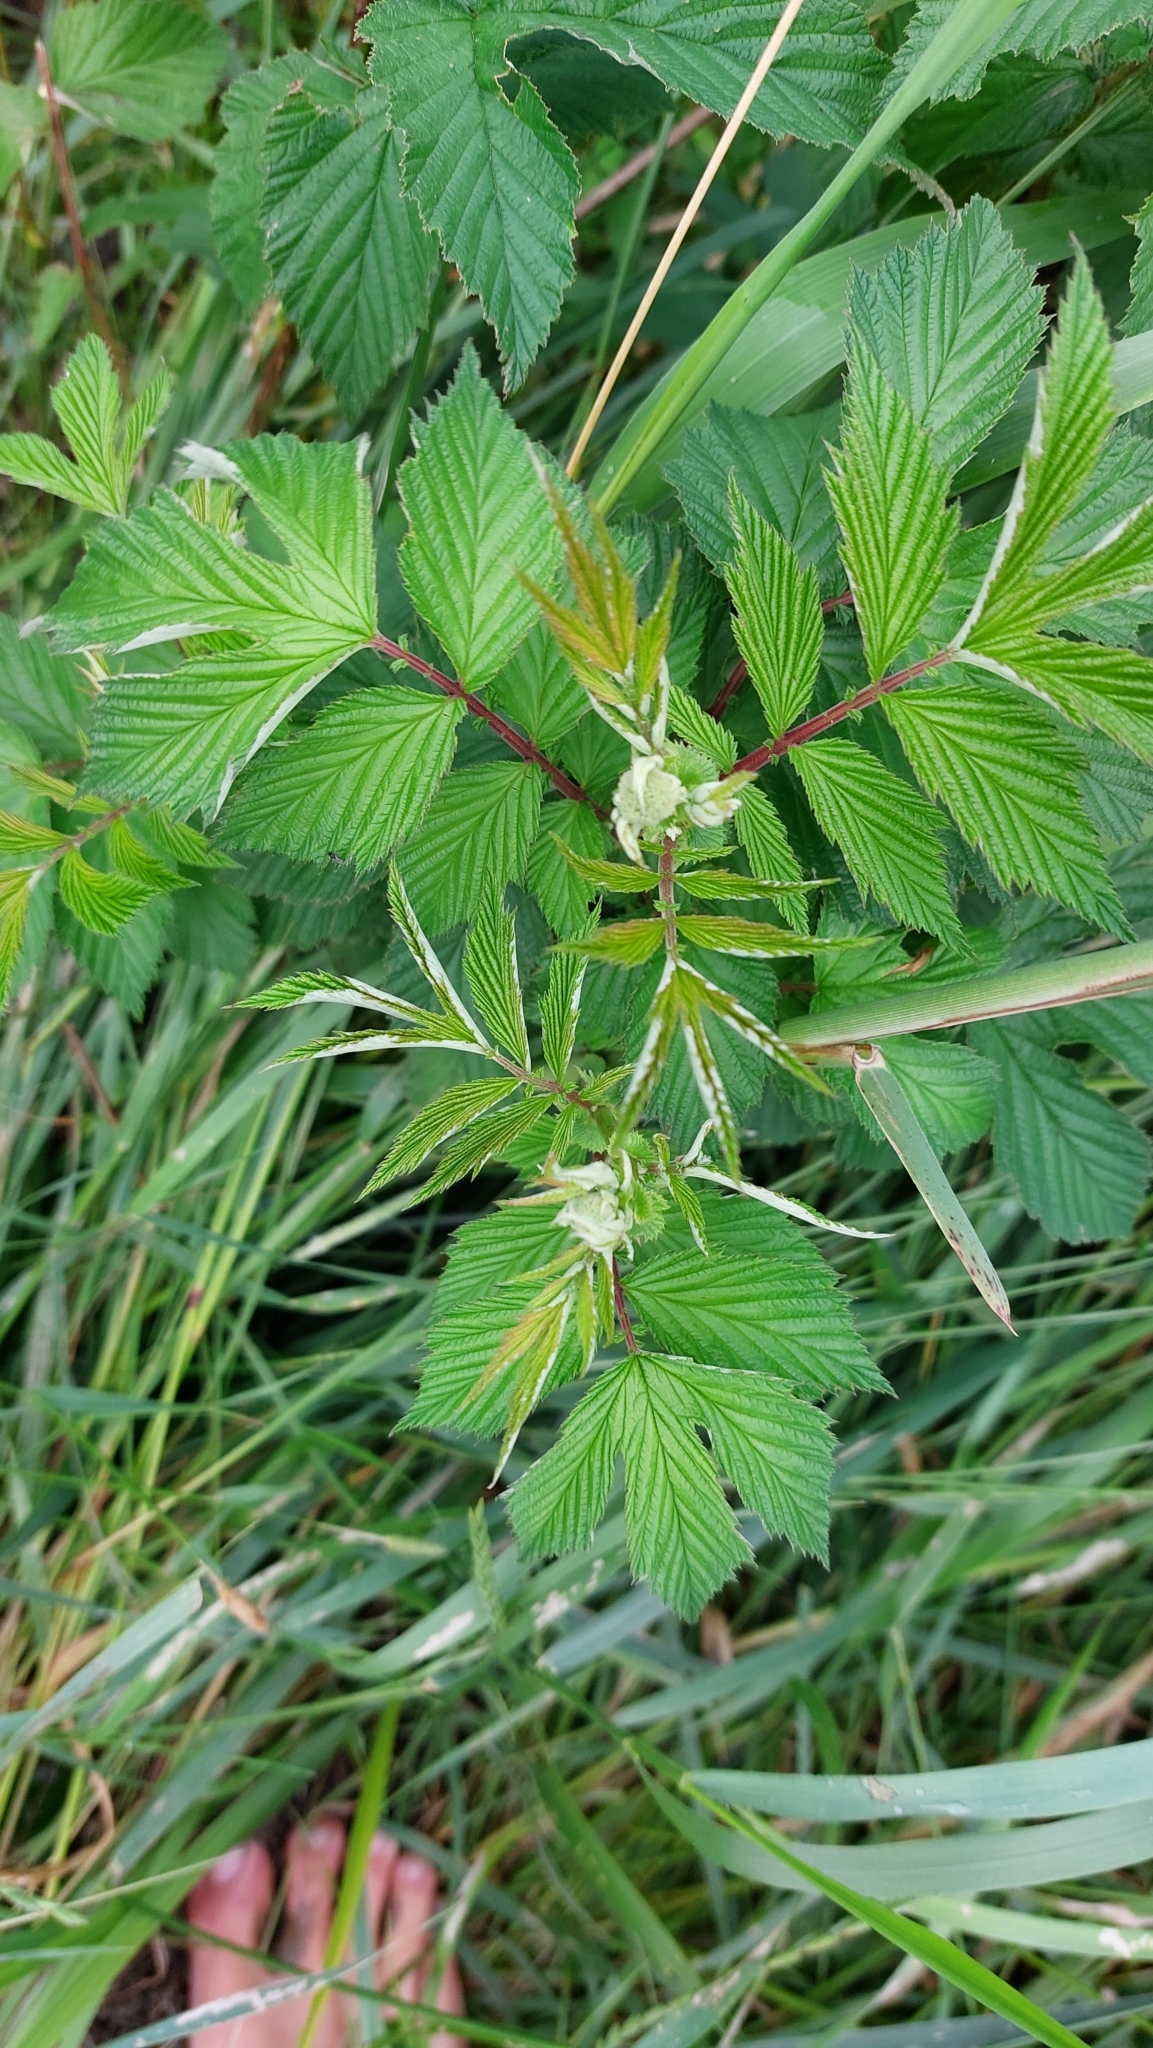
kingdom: Plantae
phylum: Tracheophyta
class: Magnoliopsida
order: Rosales
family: Rosaceae
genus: Filipendula
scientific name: Filipendula ulmaria
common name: Meadowsweet
